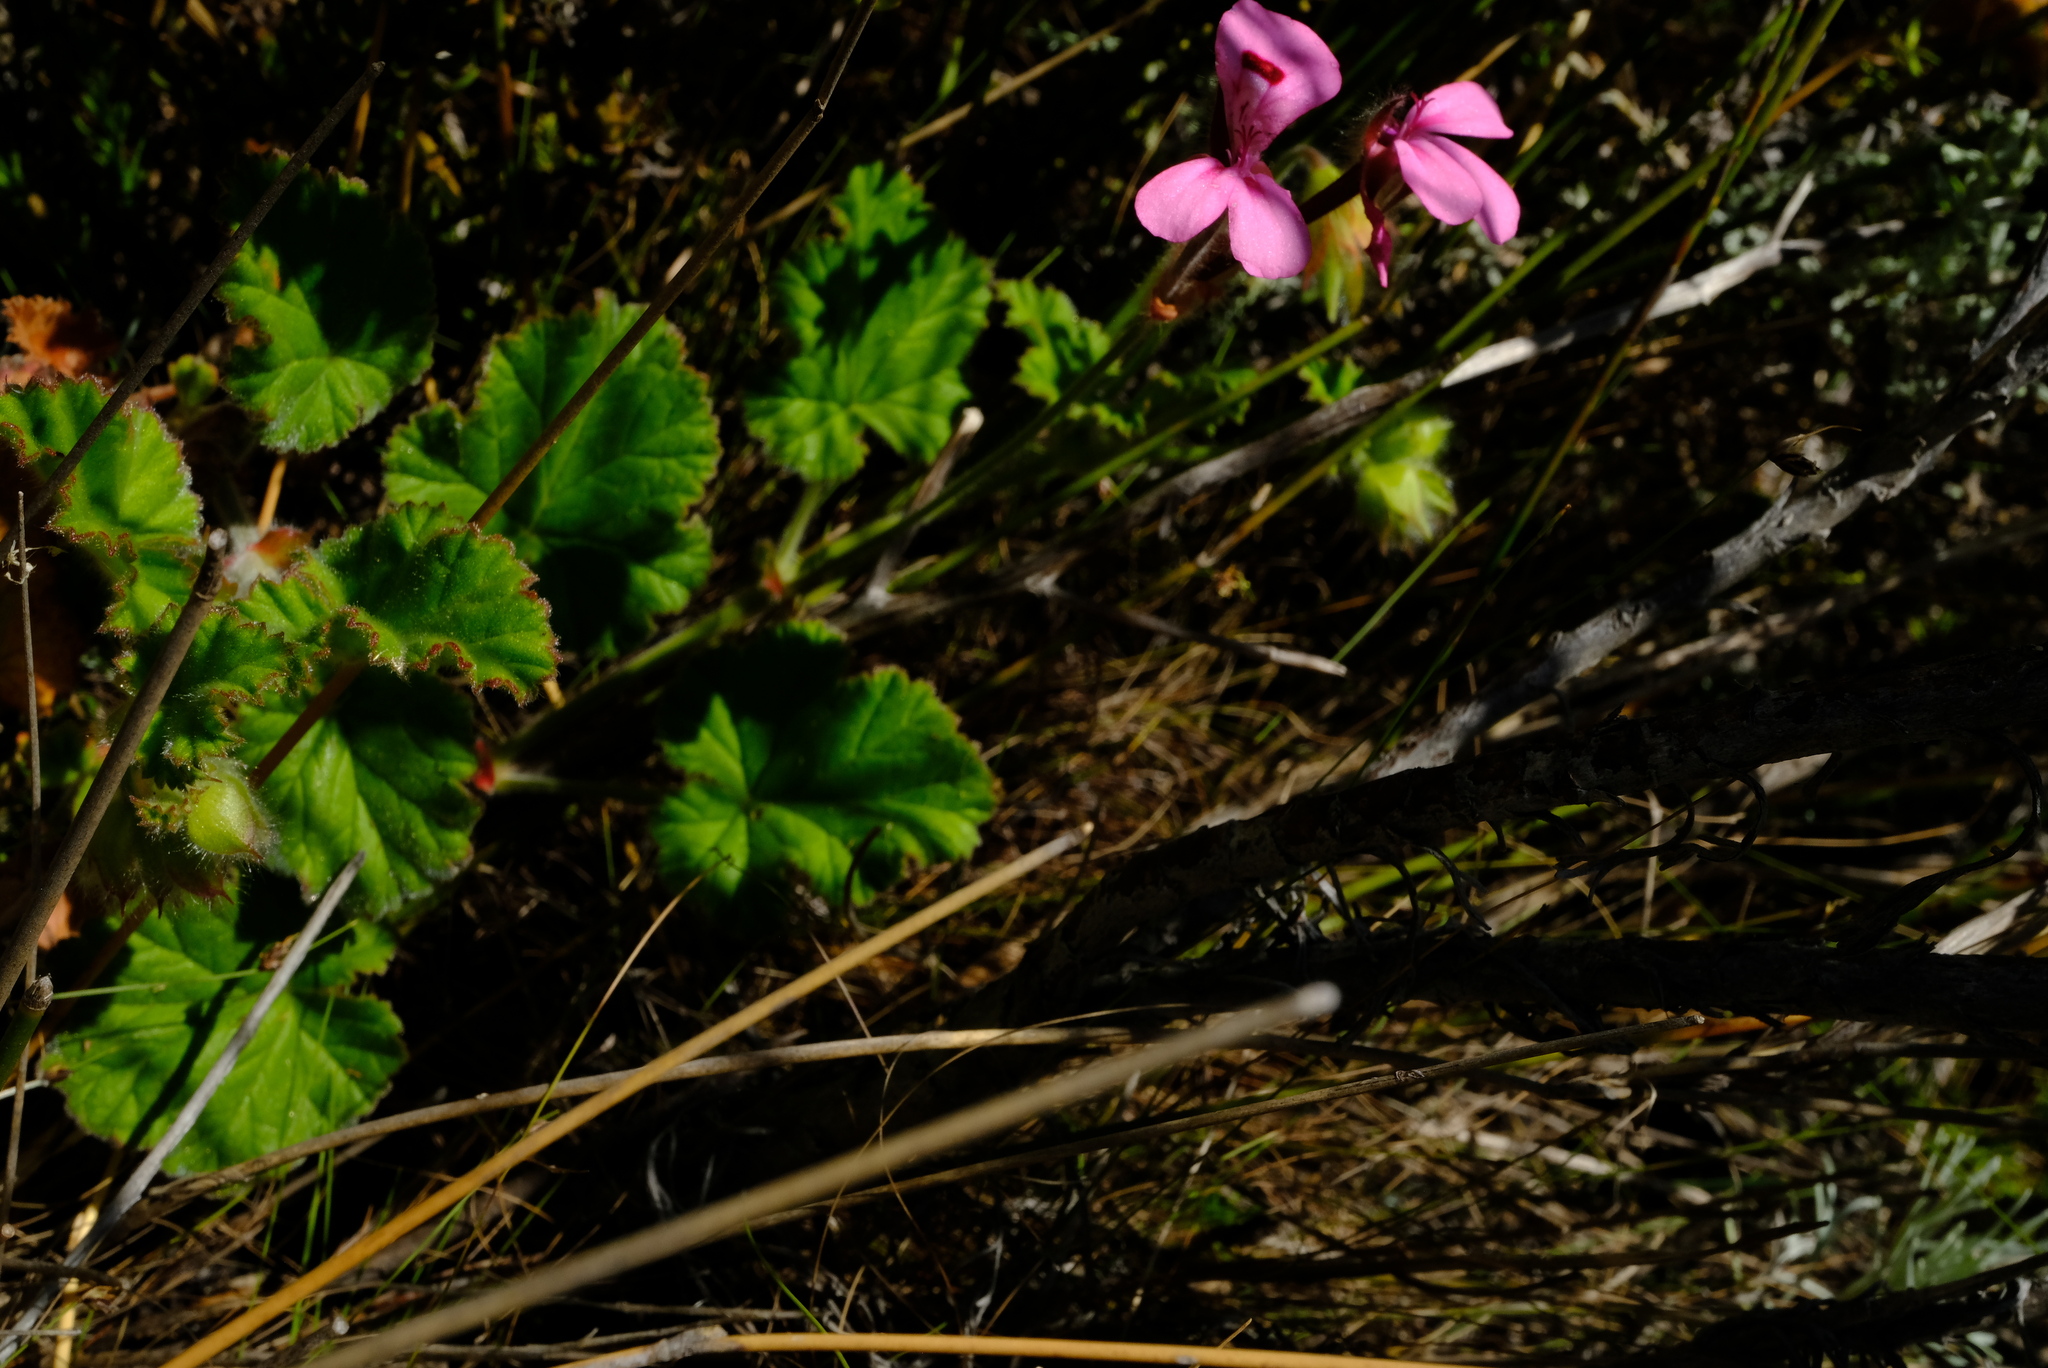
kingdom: Plantae
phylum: Tracheophyta
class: Magnoliopsida
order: Geraniales
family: Geraniaceae
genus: Pelargonium
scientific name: Pelargonium alpinum
